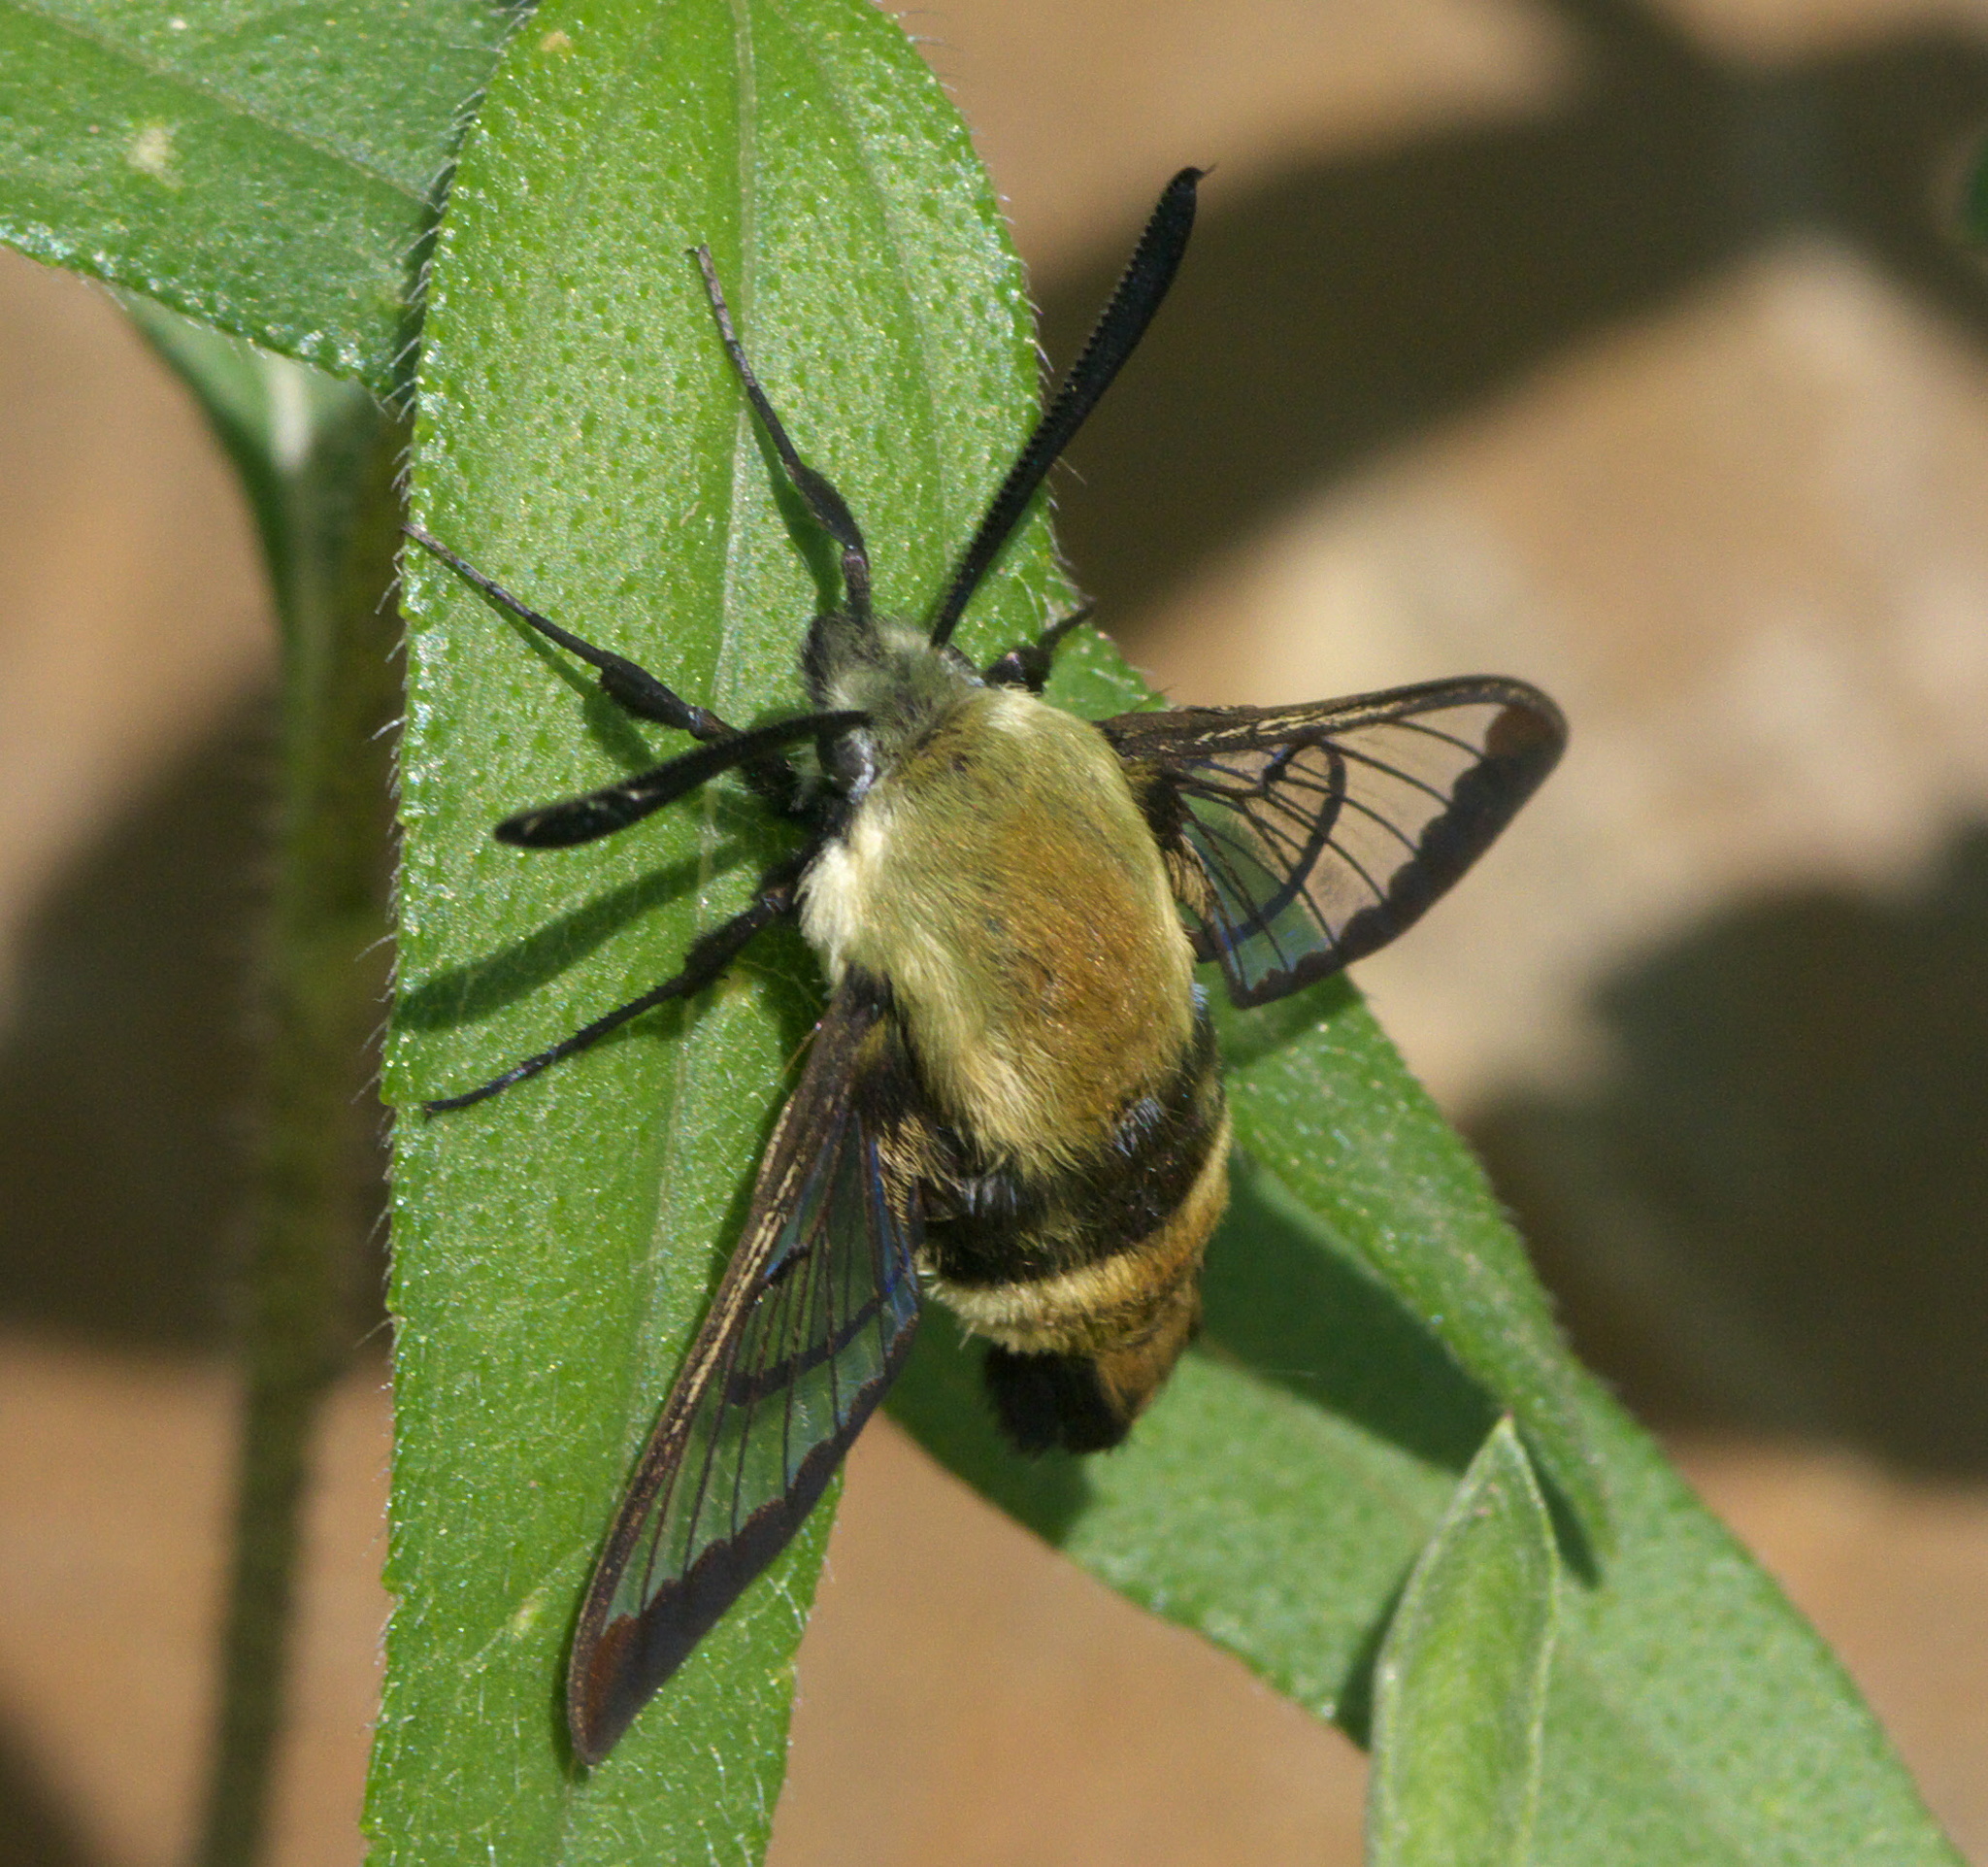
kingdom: Animalia
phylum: Arthropoda
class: Insecta
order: Lepidoptera
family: Sphingidae
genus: Hemaris
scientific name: Hemaris diffinis
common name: Bumblebee moth
